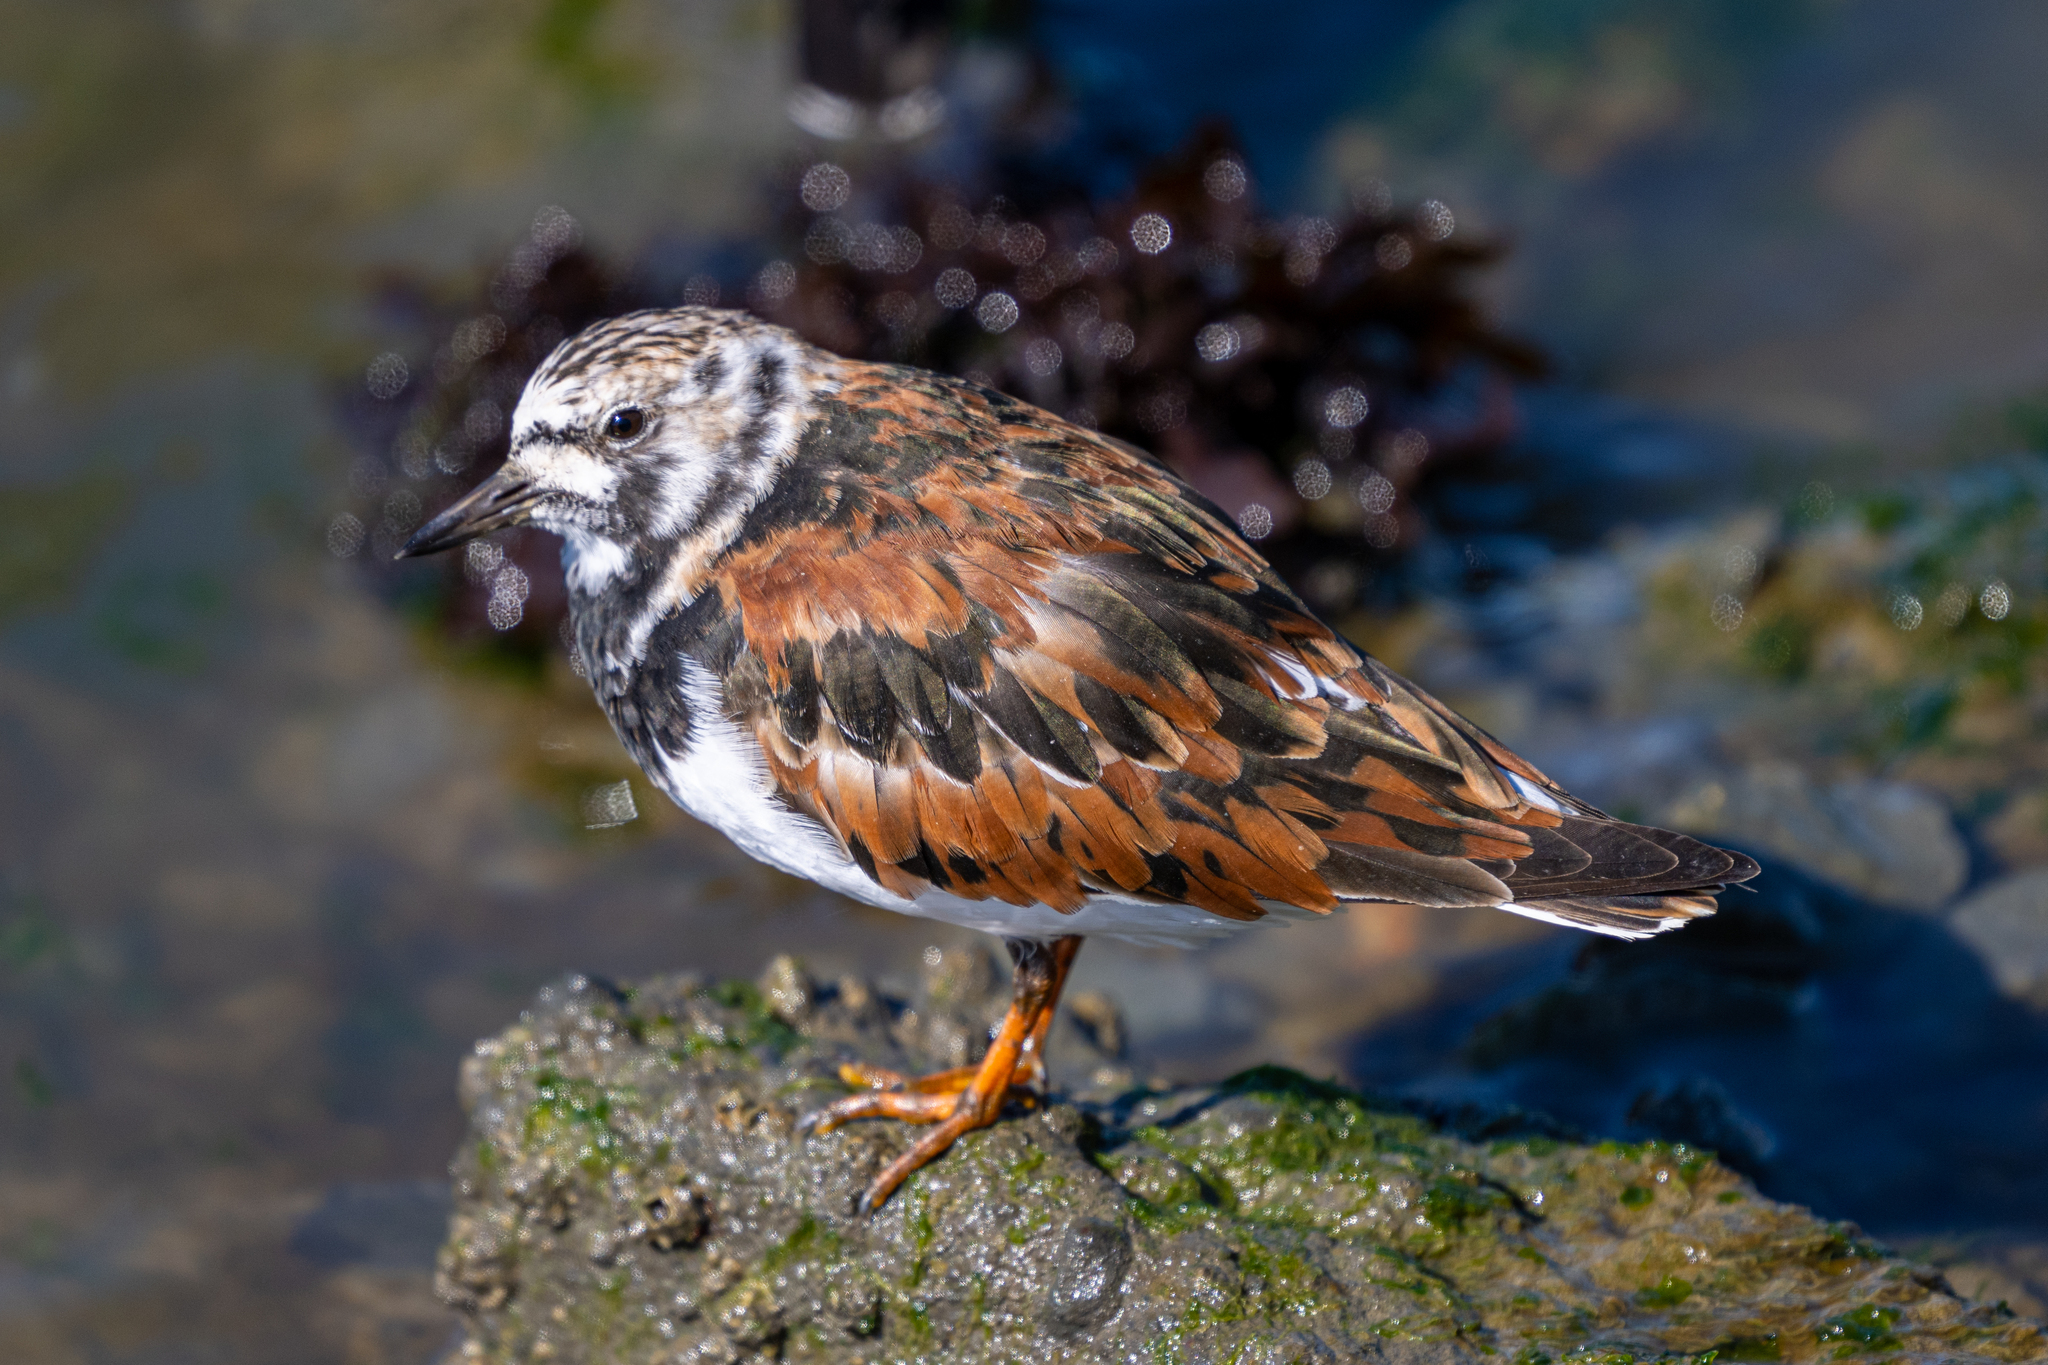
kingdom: Animalia
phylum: Chordata
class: Aves
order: Charadriiformes
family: Scolopacidae
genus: Arenaria
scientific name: Arenaria interpres
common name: Ruddy turnstone
